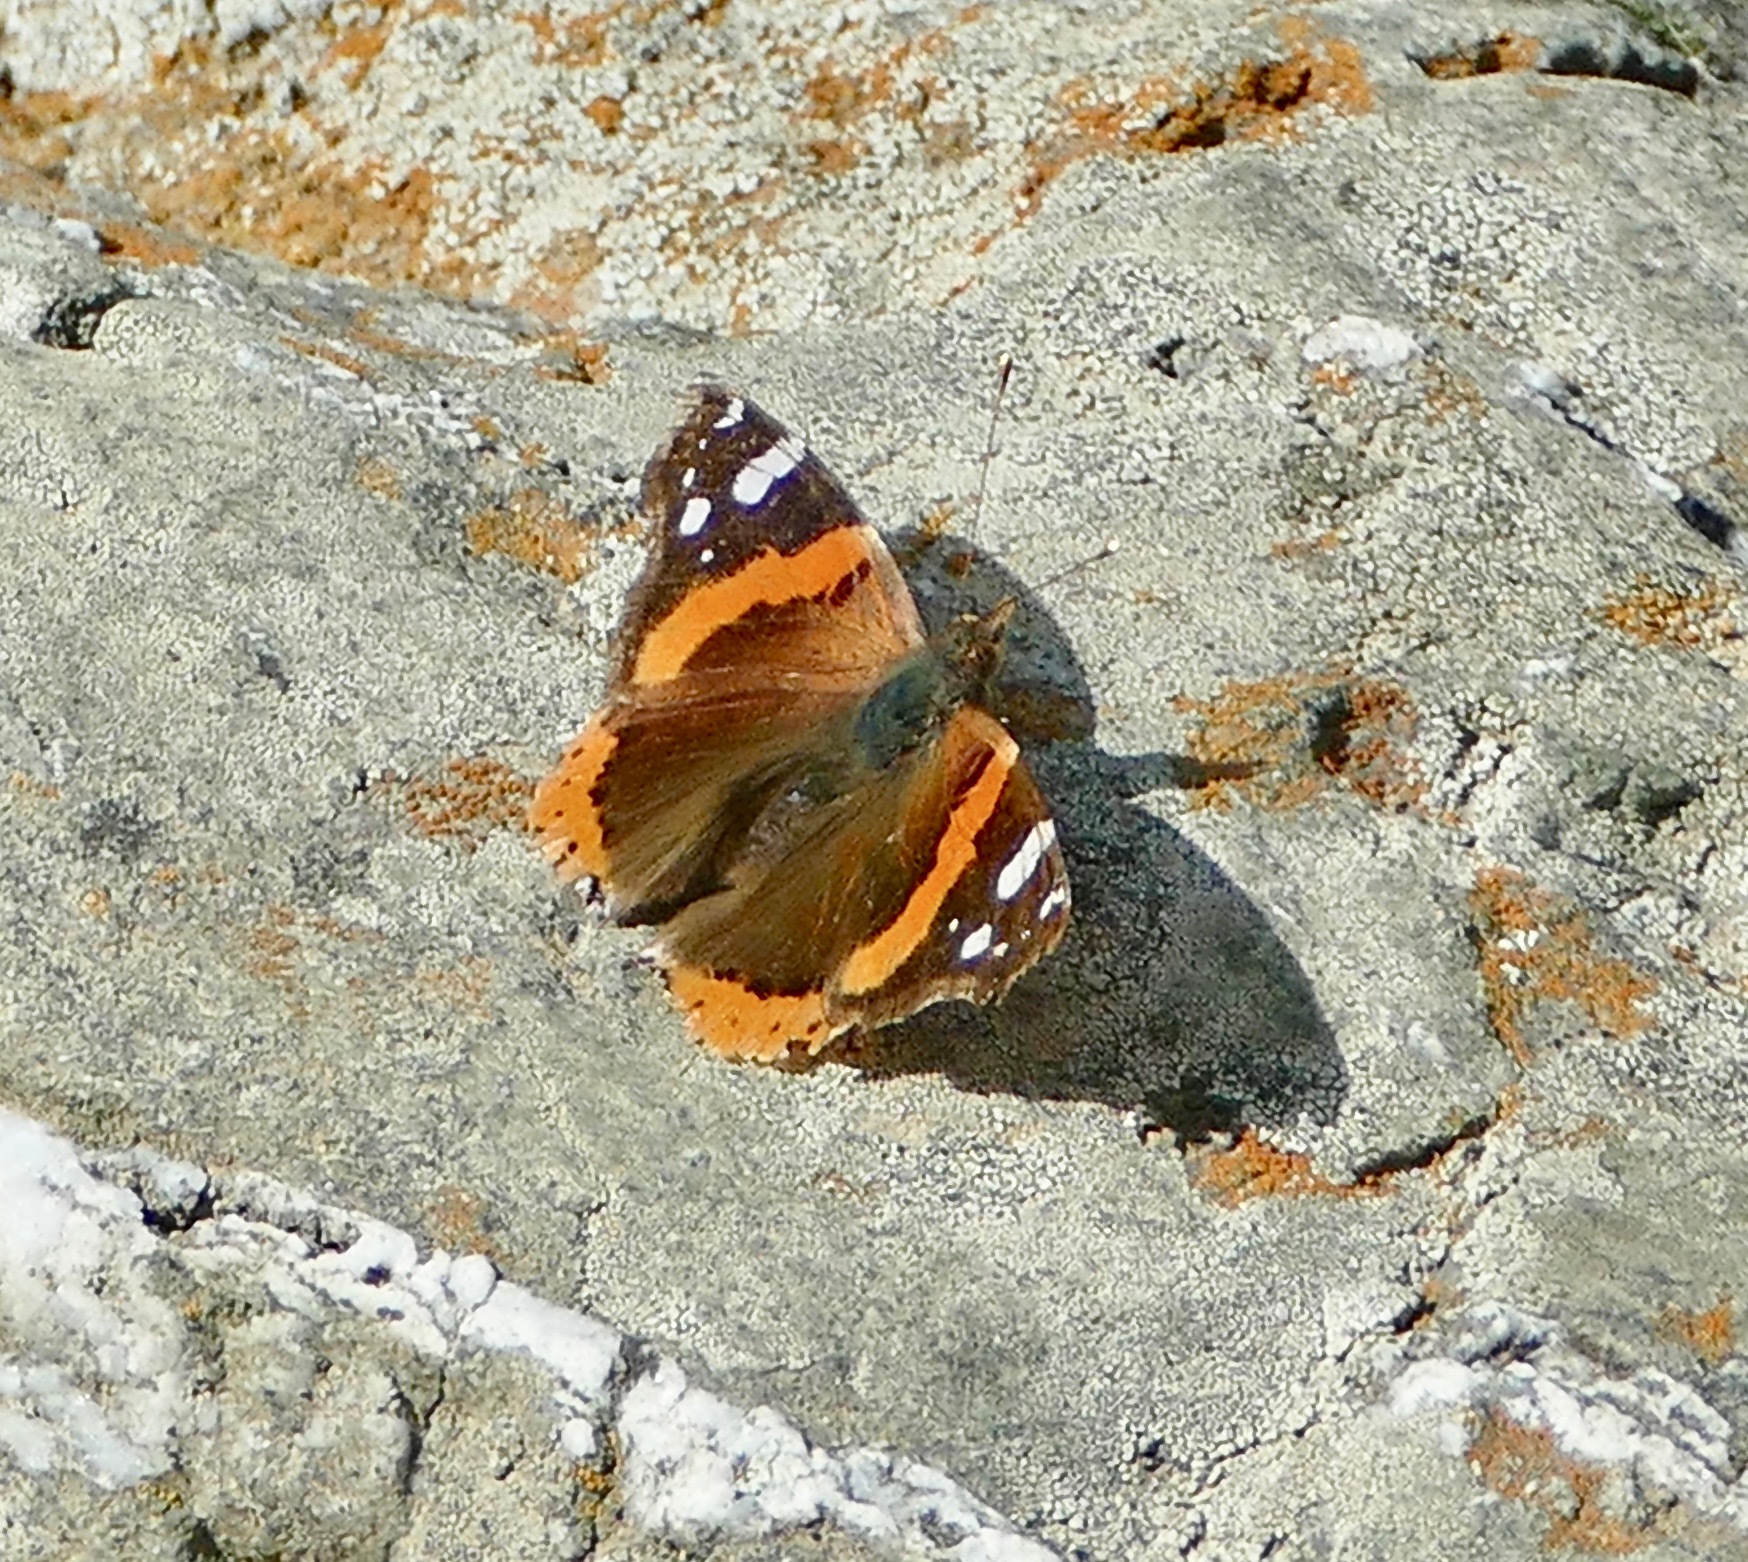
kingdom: Animalia
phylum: Arthropoda
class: Insecta
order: Lepidoptera
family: Nymphalidae
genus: Vanessa
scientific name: Vanessa atalanta
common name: Red admiral
